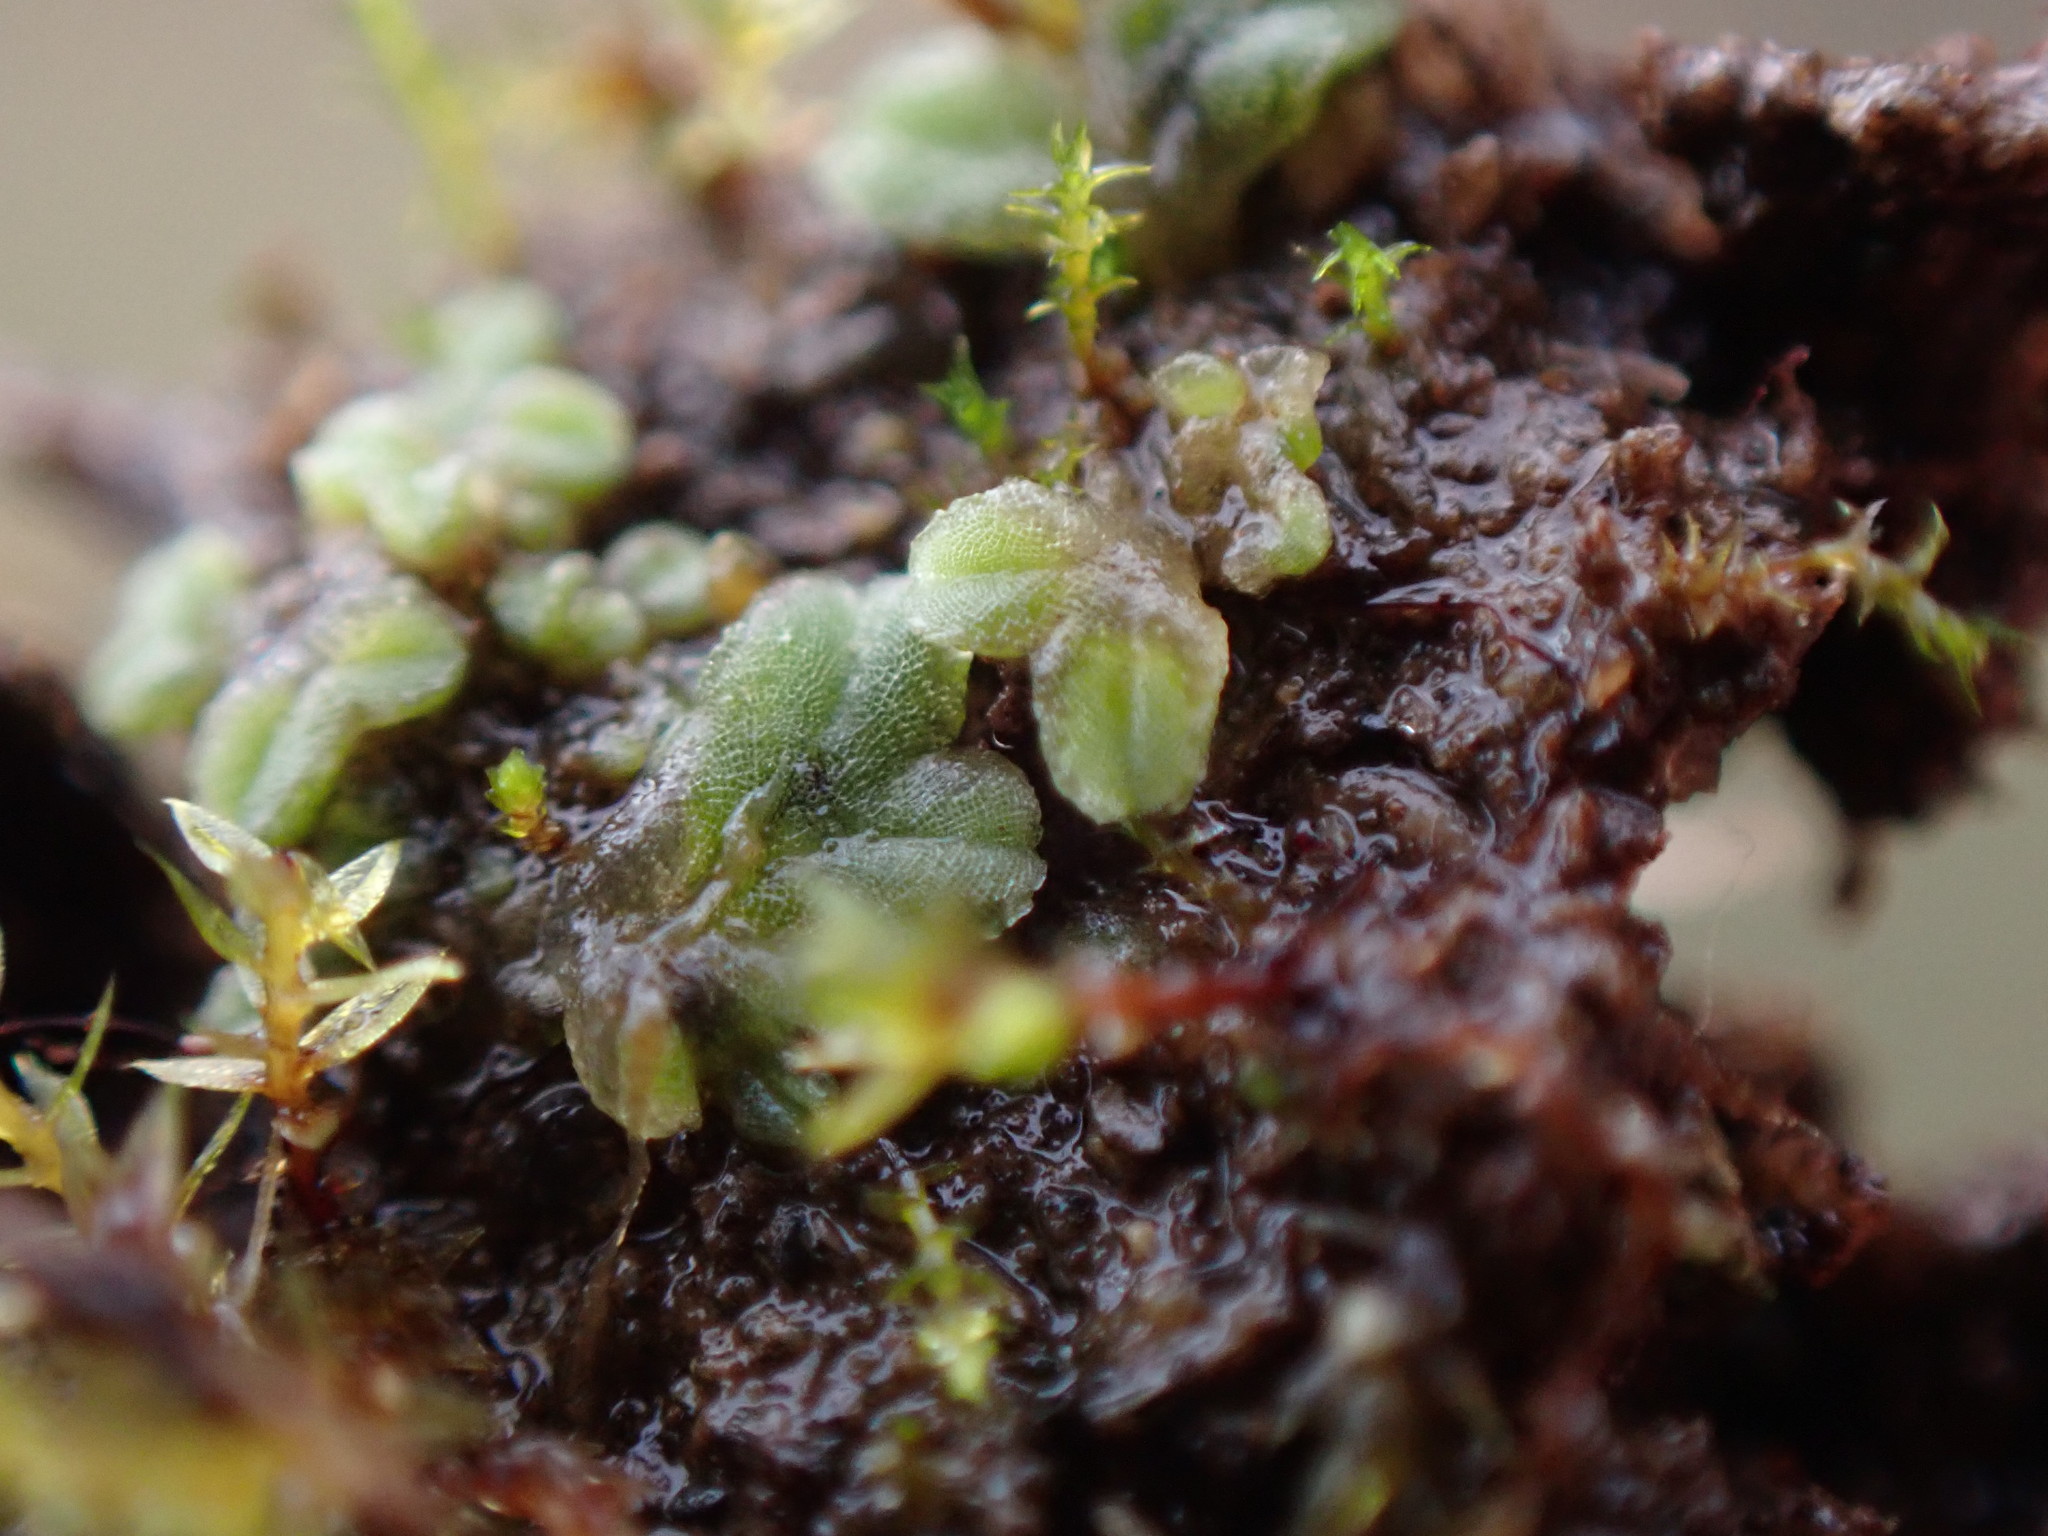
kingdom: Plantae
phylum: Marchantiophyta
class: Marchantiopsida
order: Marchantiales
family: Ricciaceae
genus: Riccia
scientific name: Riccia sorocarpa
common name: Common crystalwort
